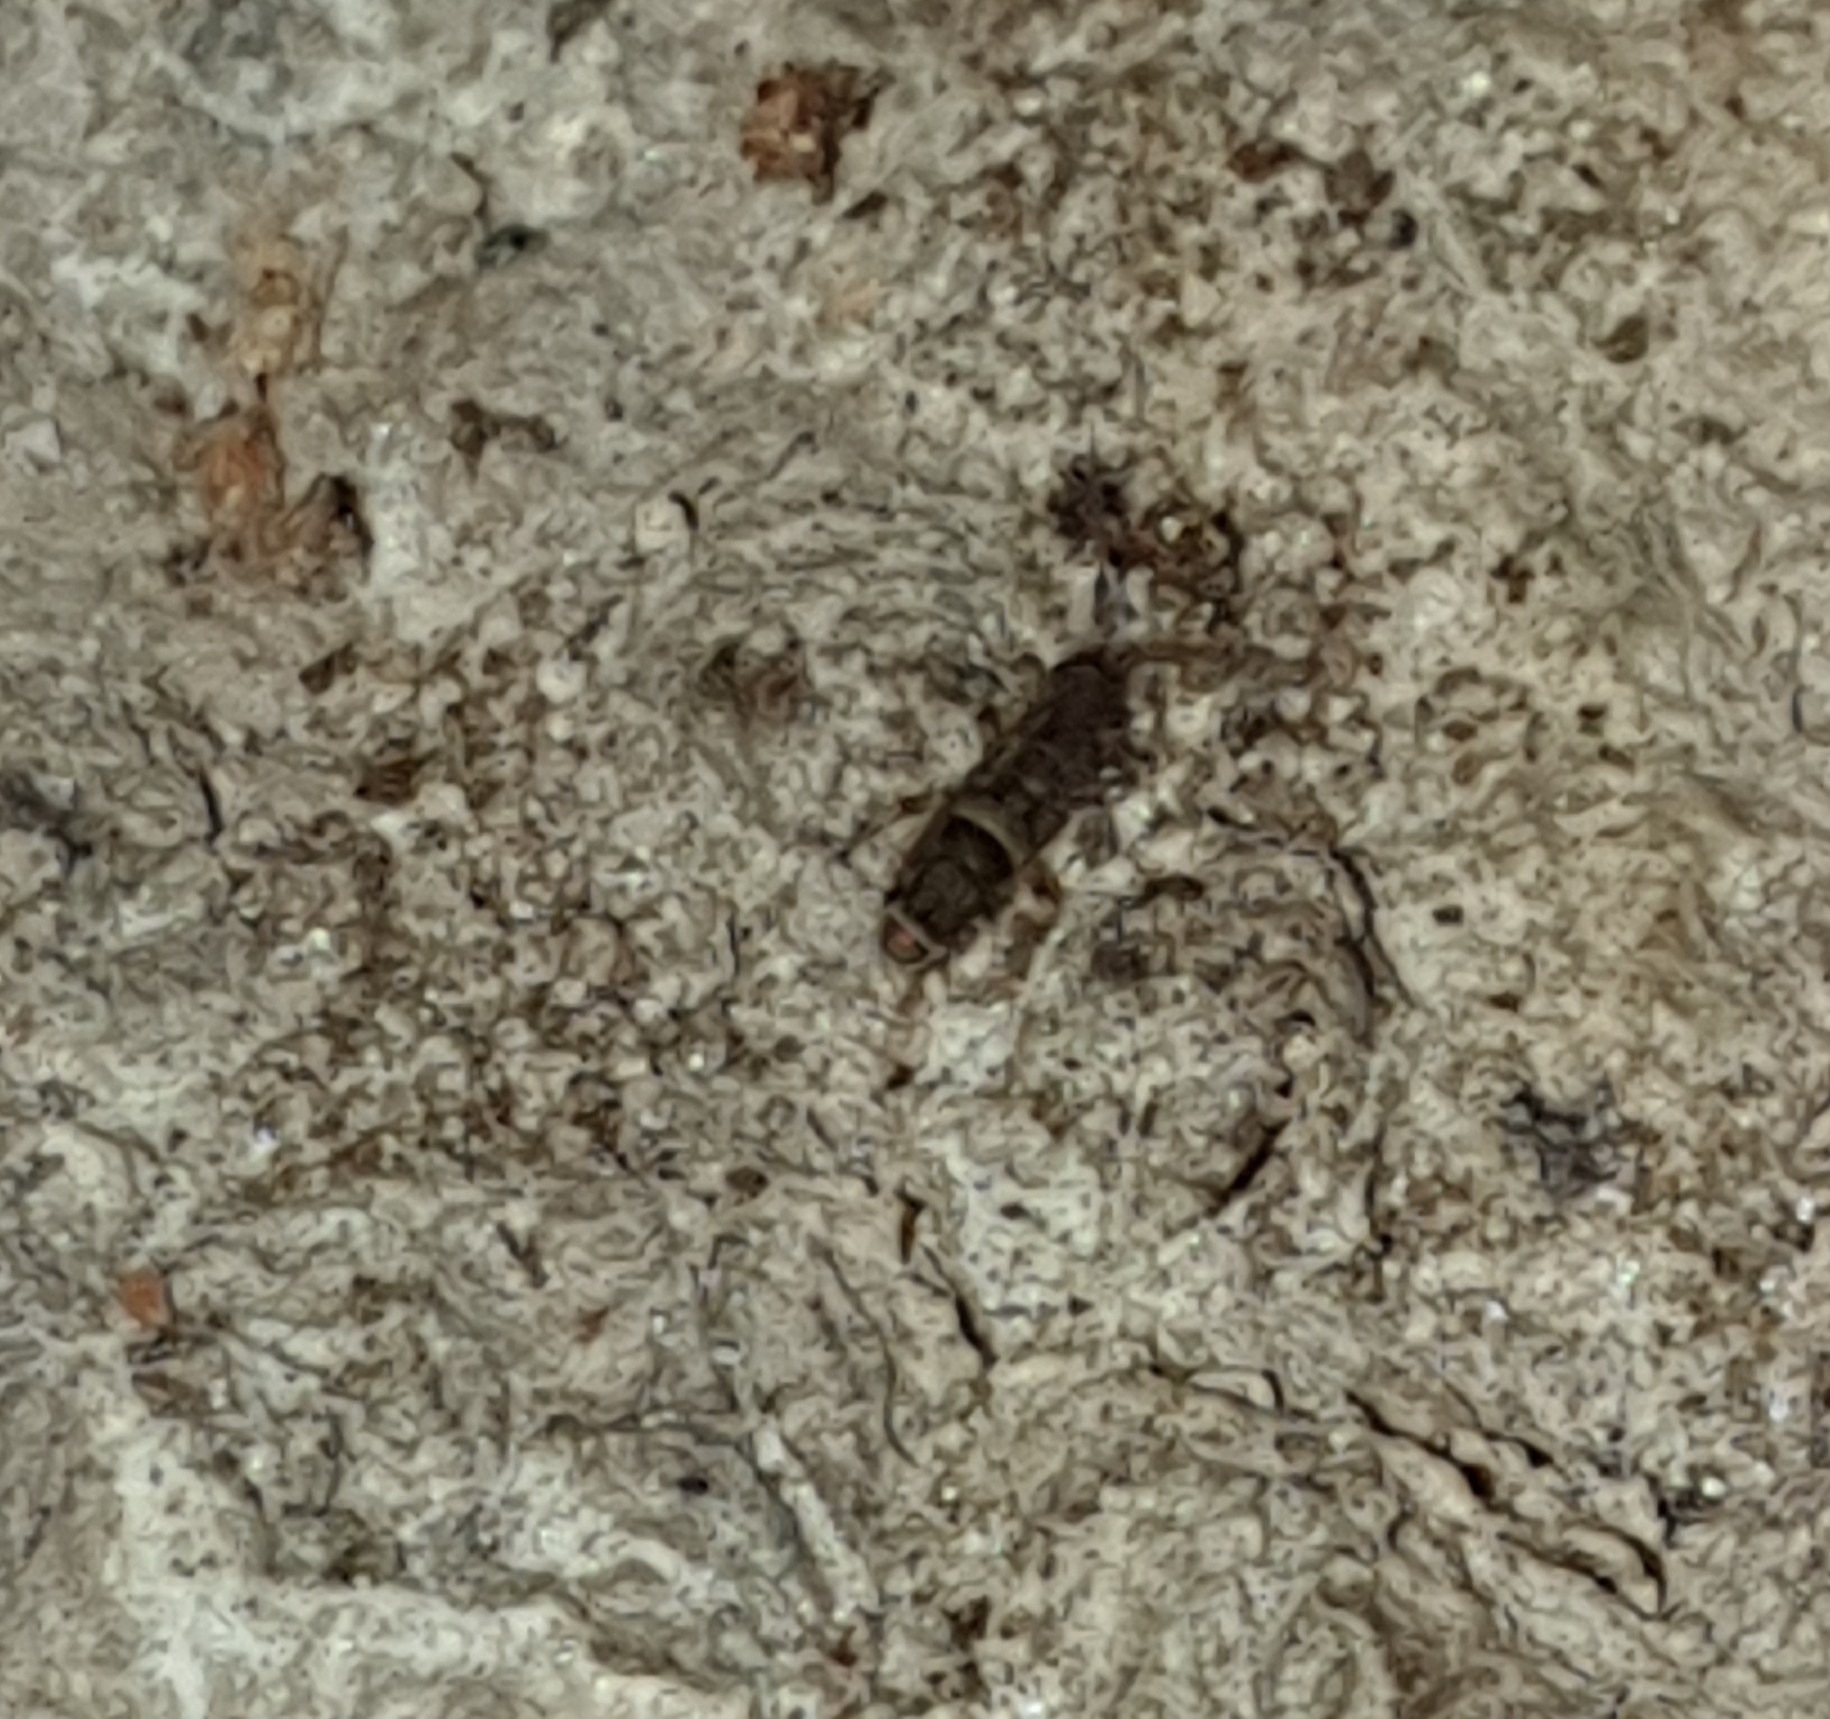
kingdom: Animalia
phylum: Arthropoda
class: Collembola
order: Entomobryomorpha
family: Orchesellidae
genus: Orchesella
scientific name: Orchesella cincta
